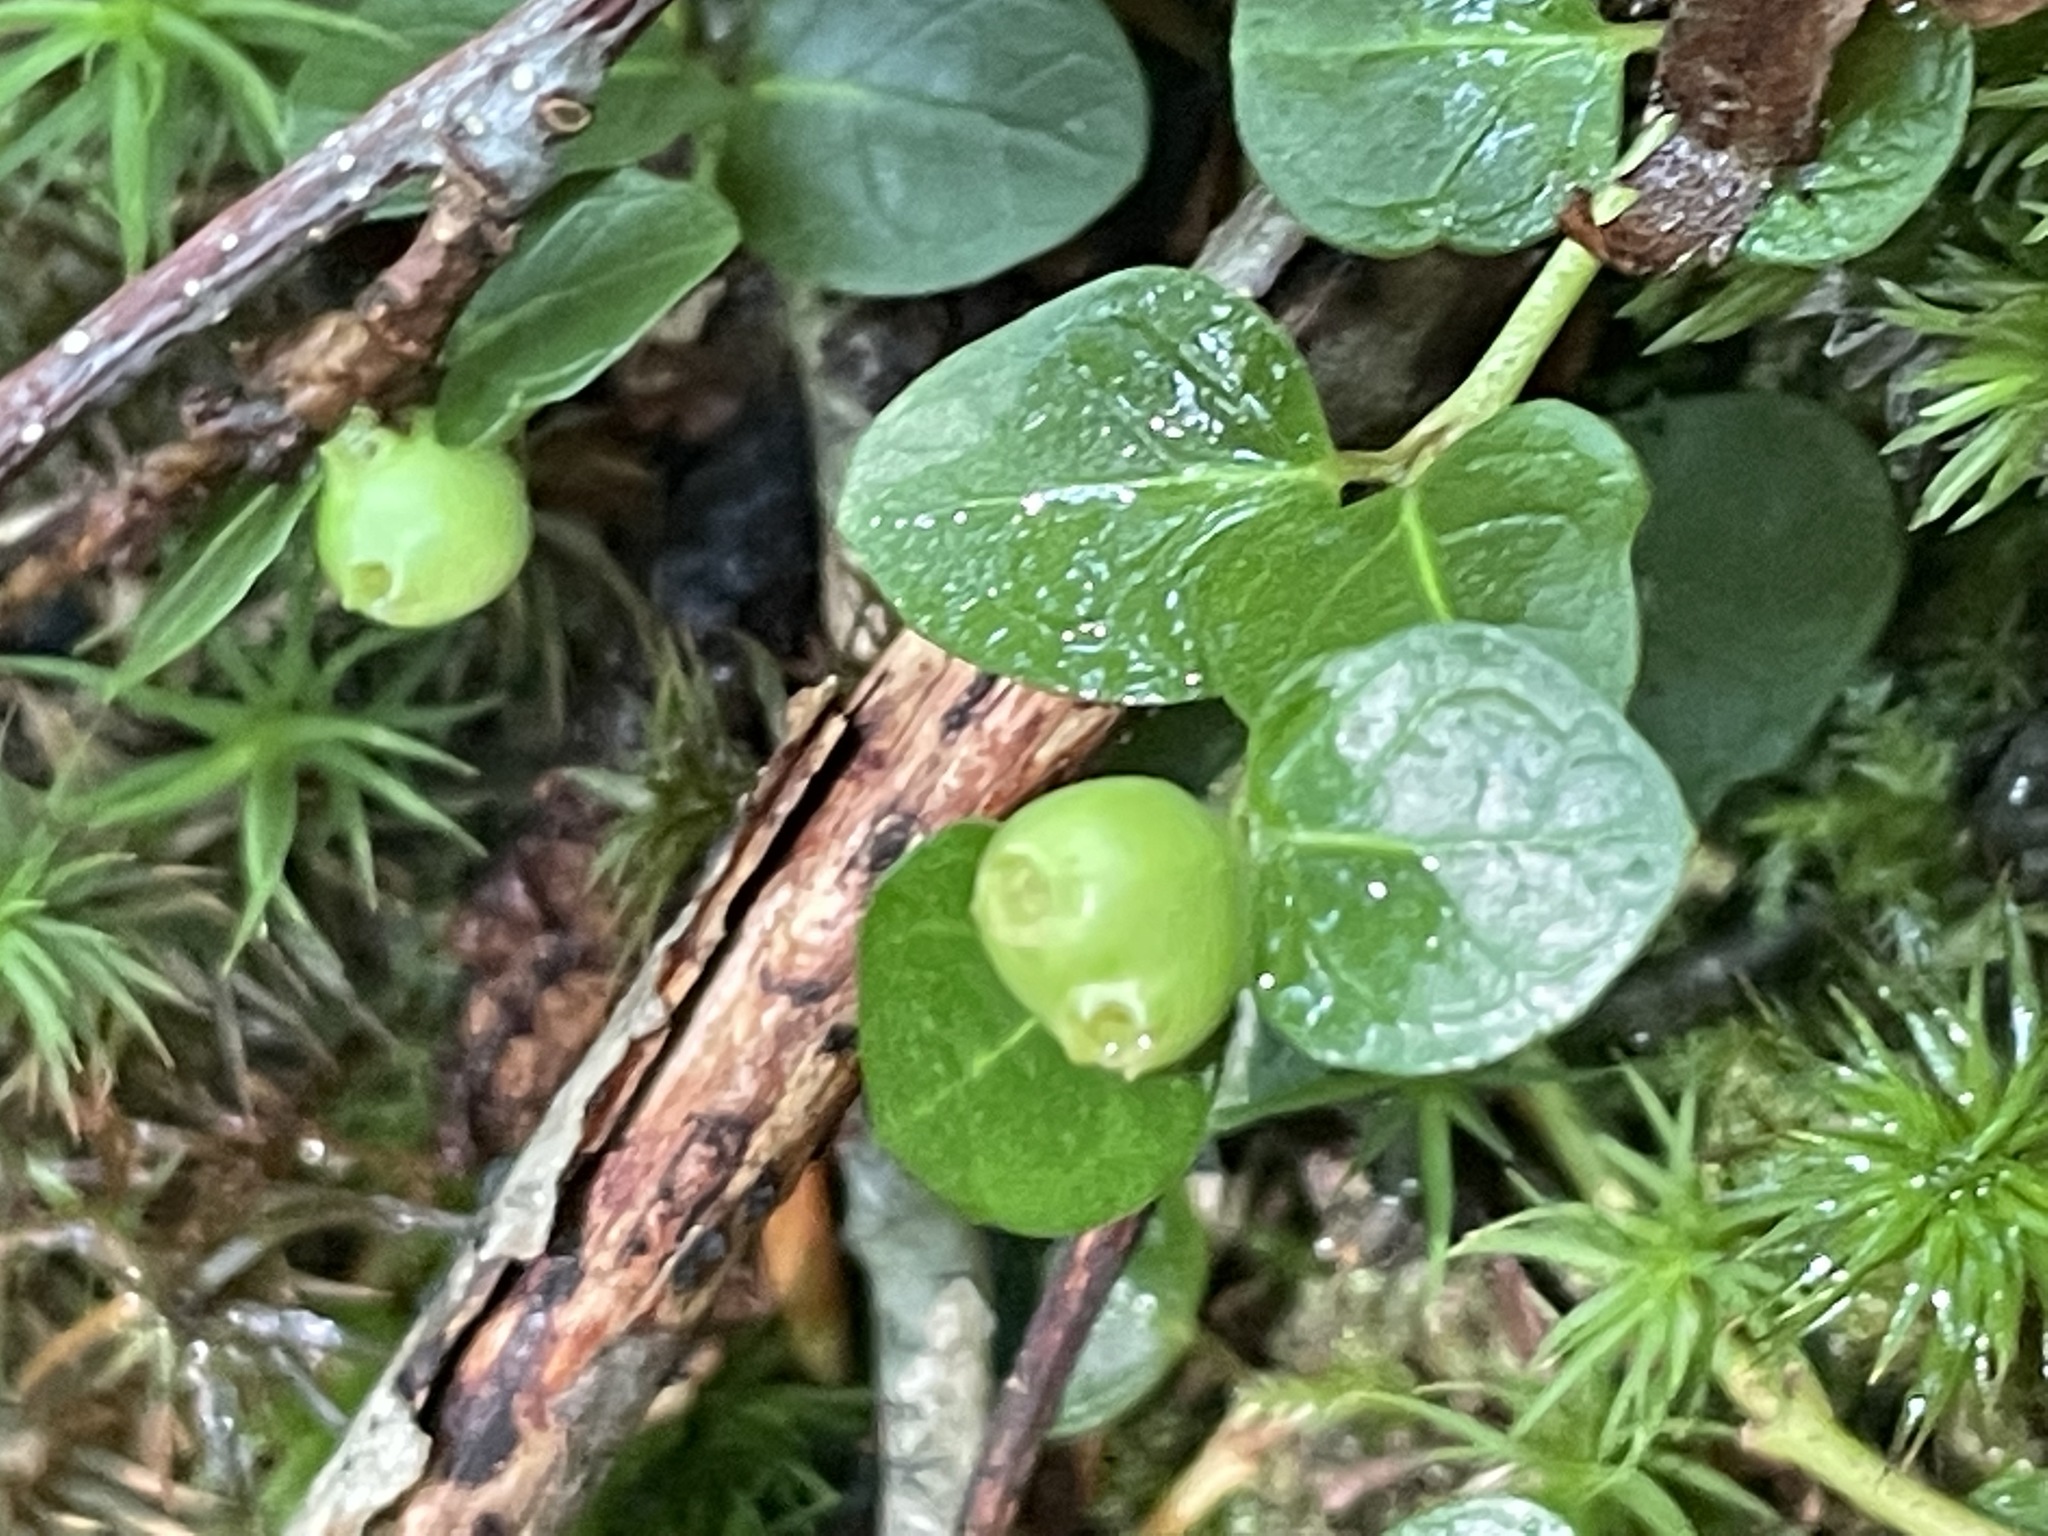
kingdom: Plantae
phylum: Tracheophyta
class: Magnoliopsida
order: Gentianales
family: Rubiaceae
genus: Mitchella
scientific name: Mitchella repens
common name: Partridge-berry
